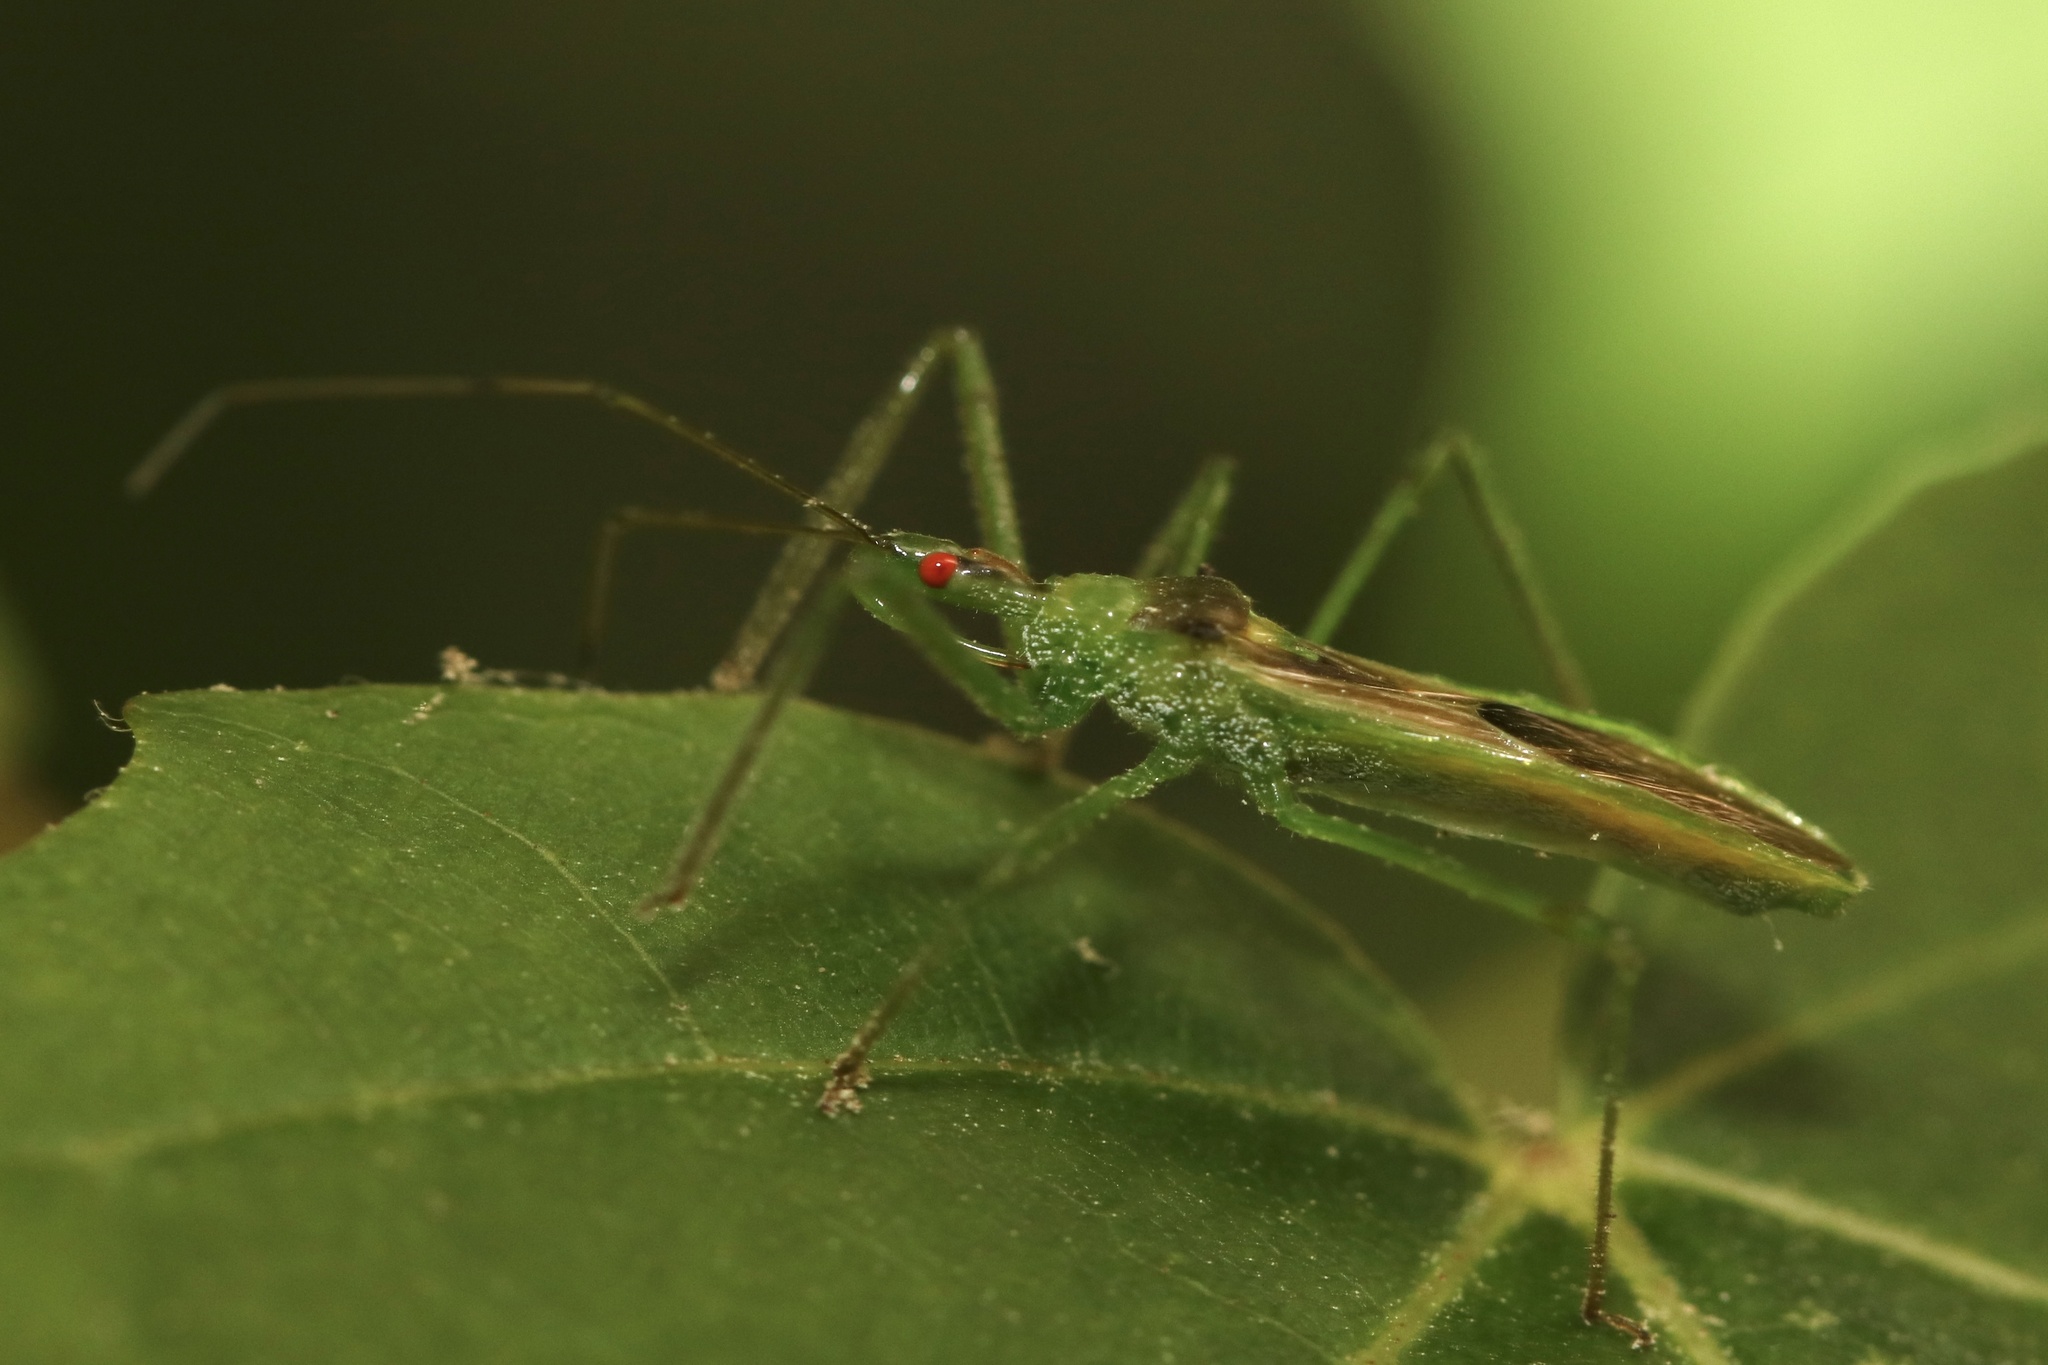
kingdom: Animalia
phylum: Arthropoda
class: Insecta
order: Hemiptera
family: Reduviidae
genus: Zelus
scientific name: Zelus luridus
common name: Pale green assassin bug
